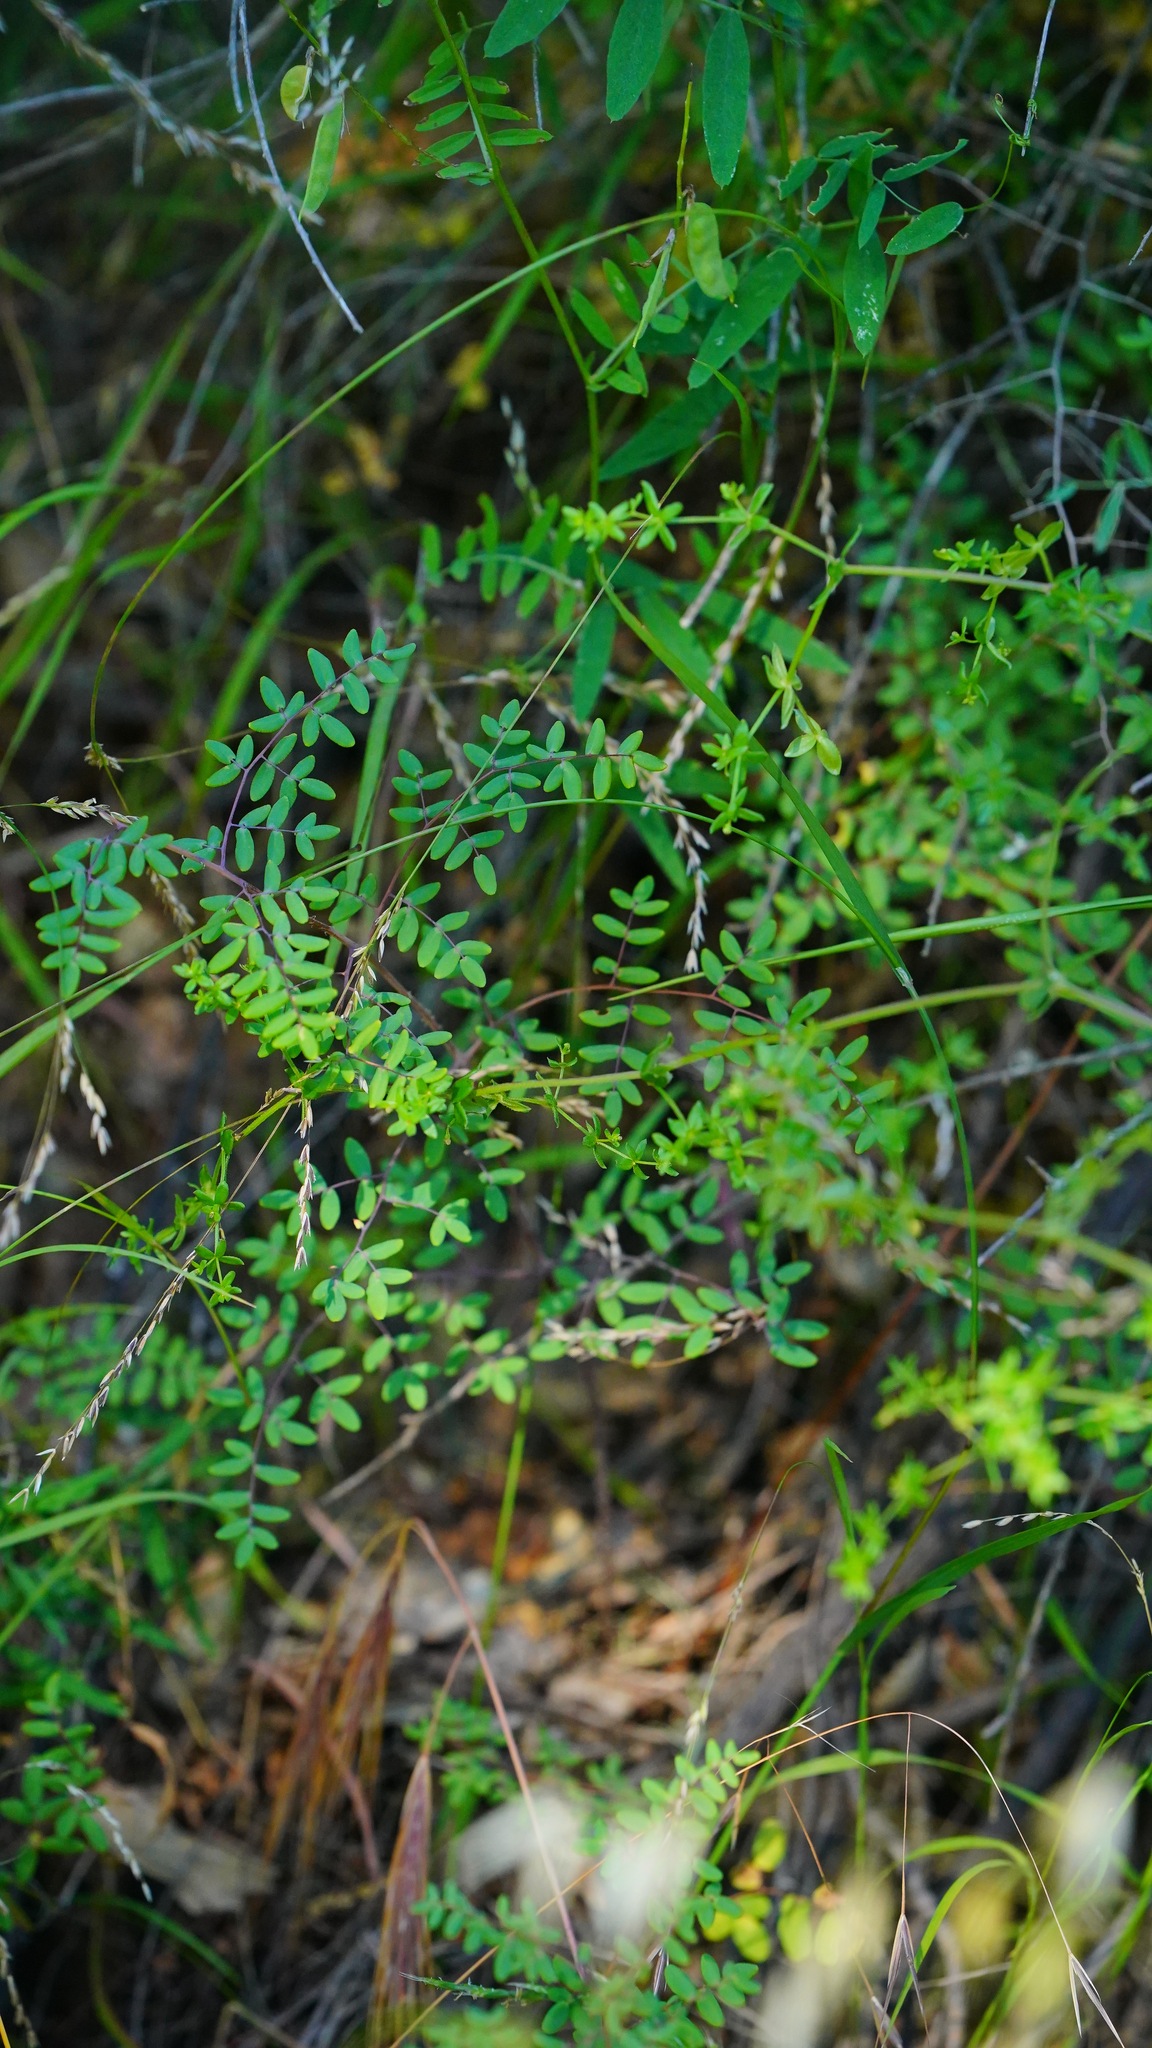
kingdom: Plantae
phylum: Tracheophyta
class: Polypodiopsida
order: Polypodiales
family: Pteridaceae
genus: Pellaea
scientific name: Pellaea andromedifolia
